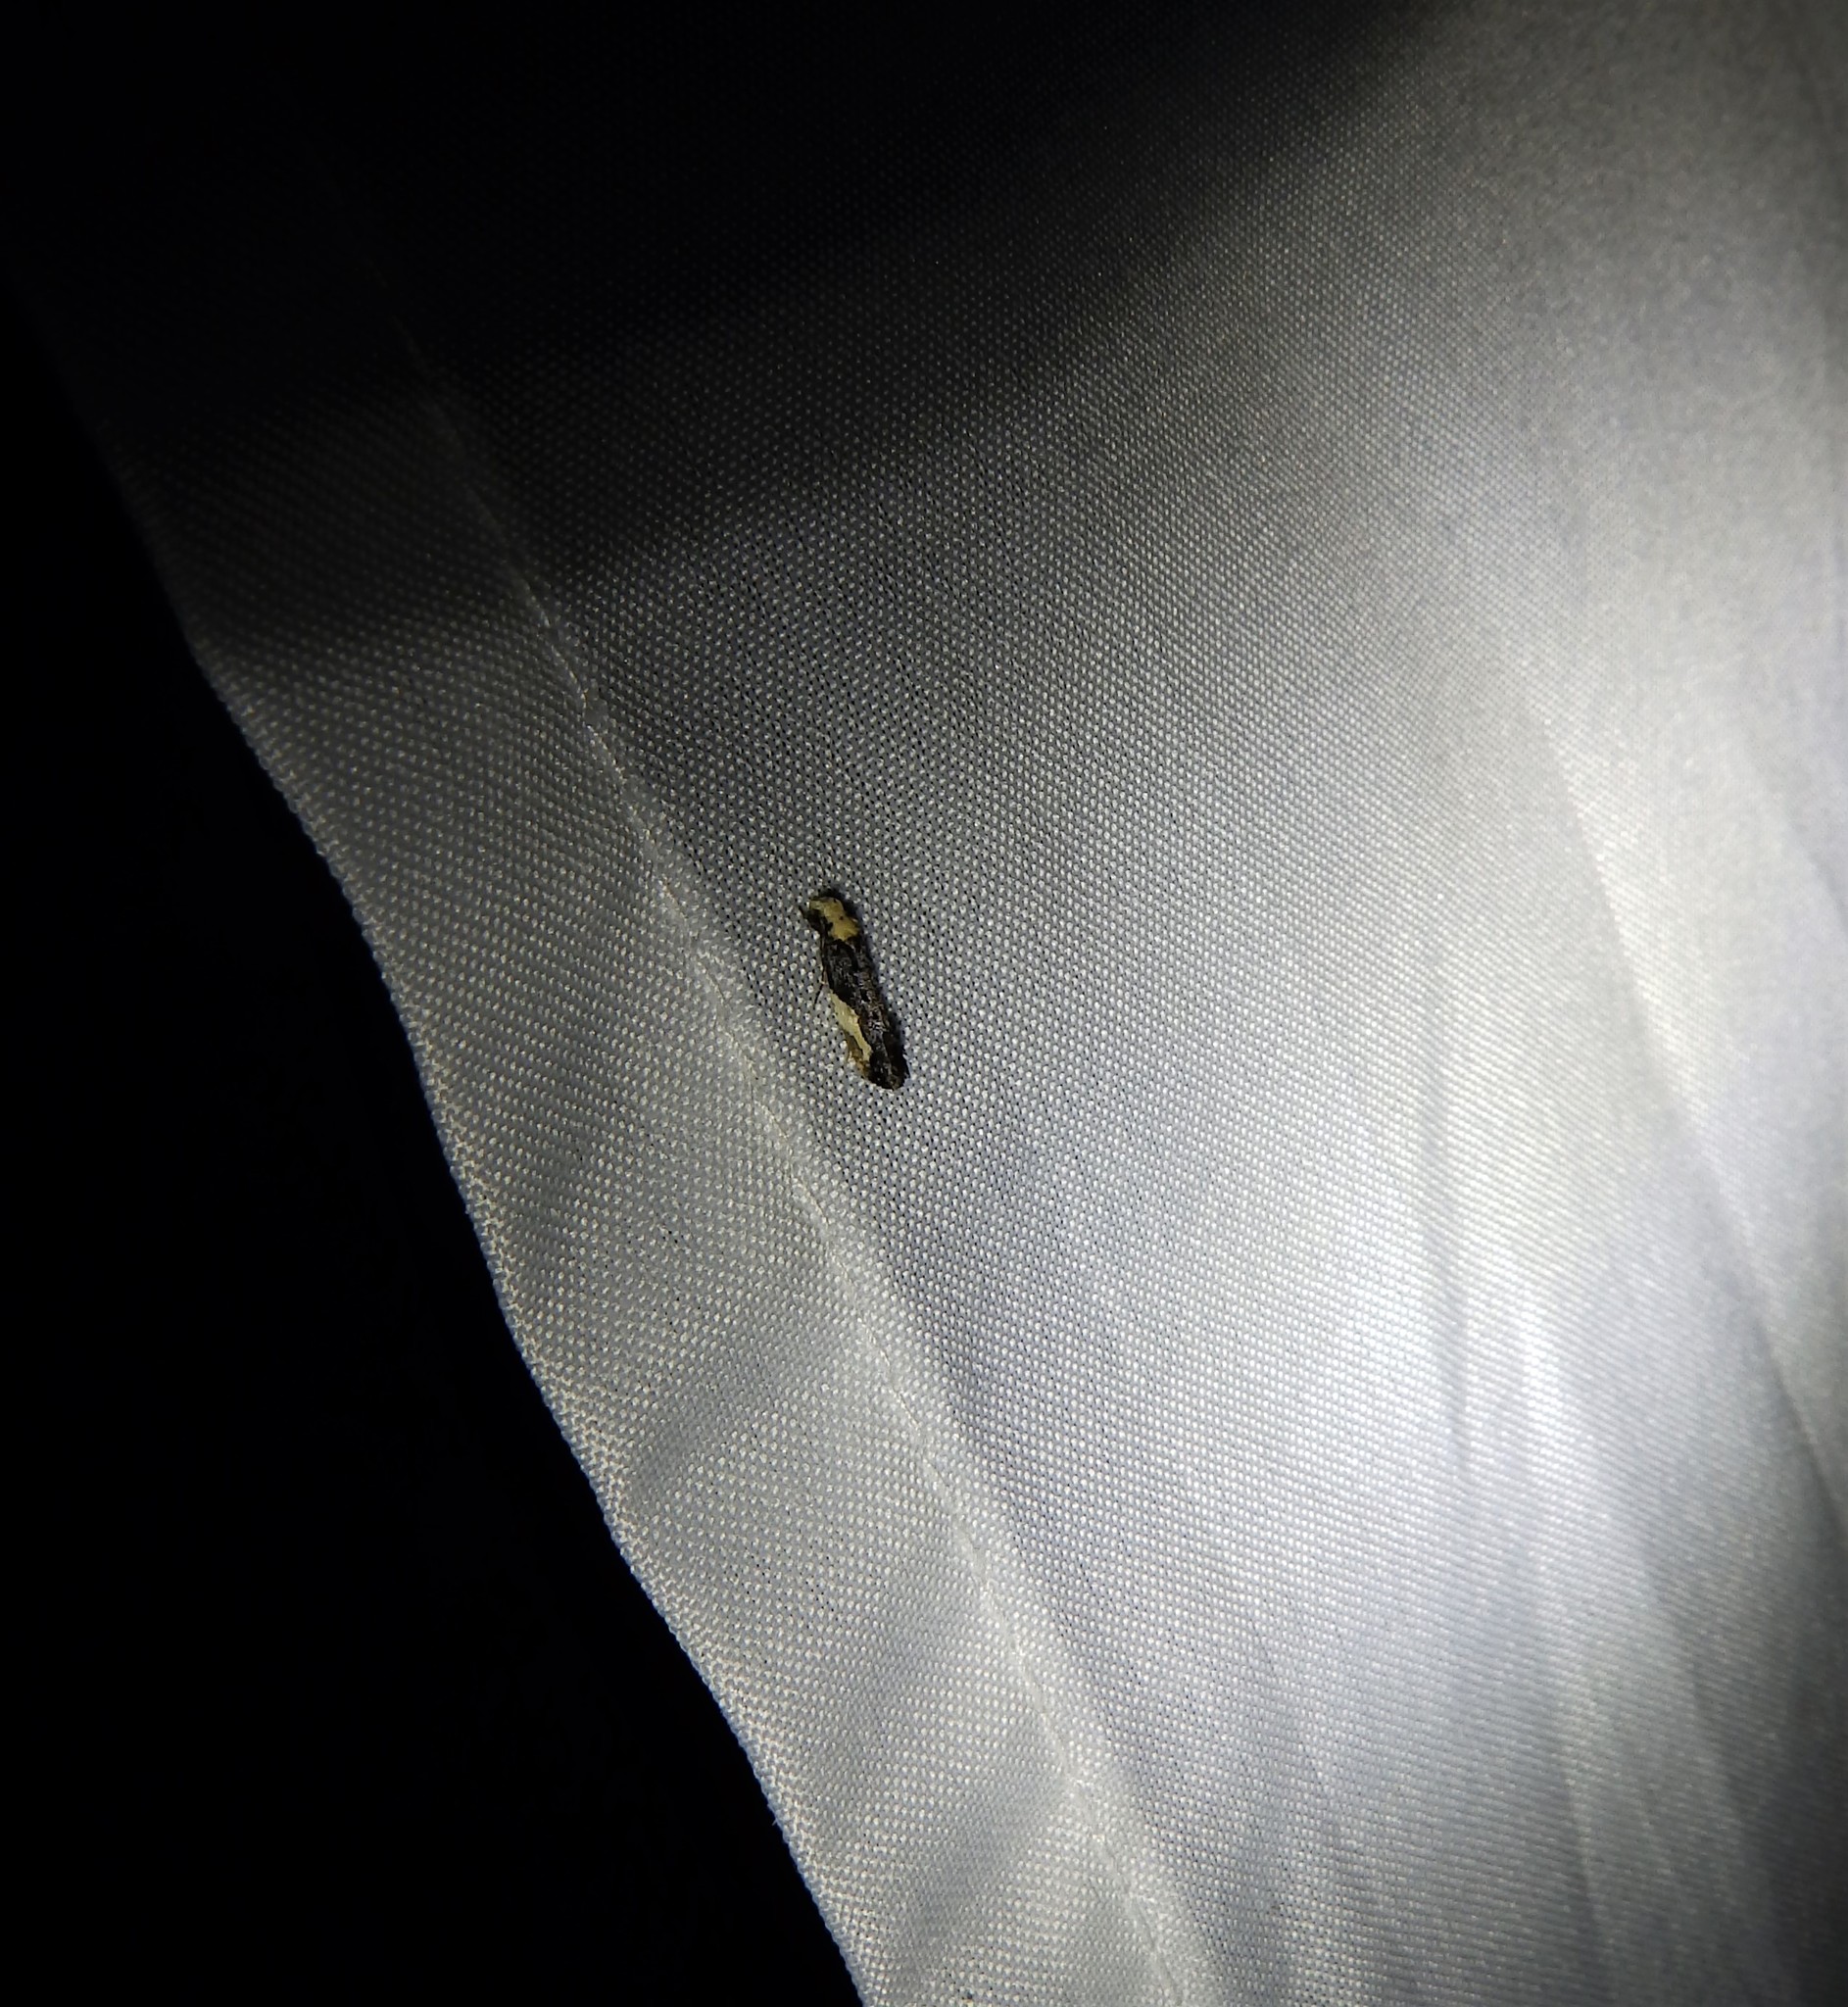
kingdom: Animalia
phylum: Arthropoda
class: Insecta
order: Lepidoptera
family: Tineidae
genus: Monopis
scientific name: Monopis longella
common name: Pavlovski's monopis moth
